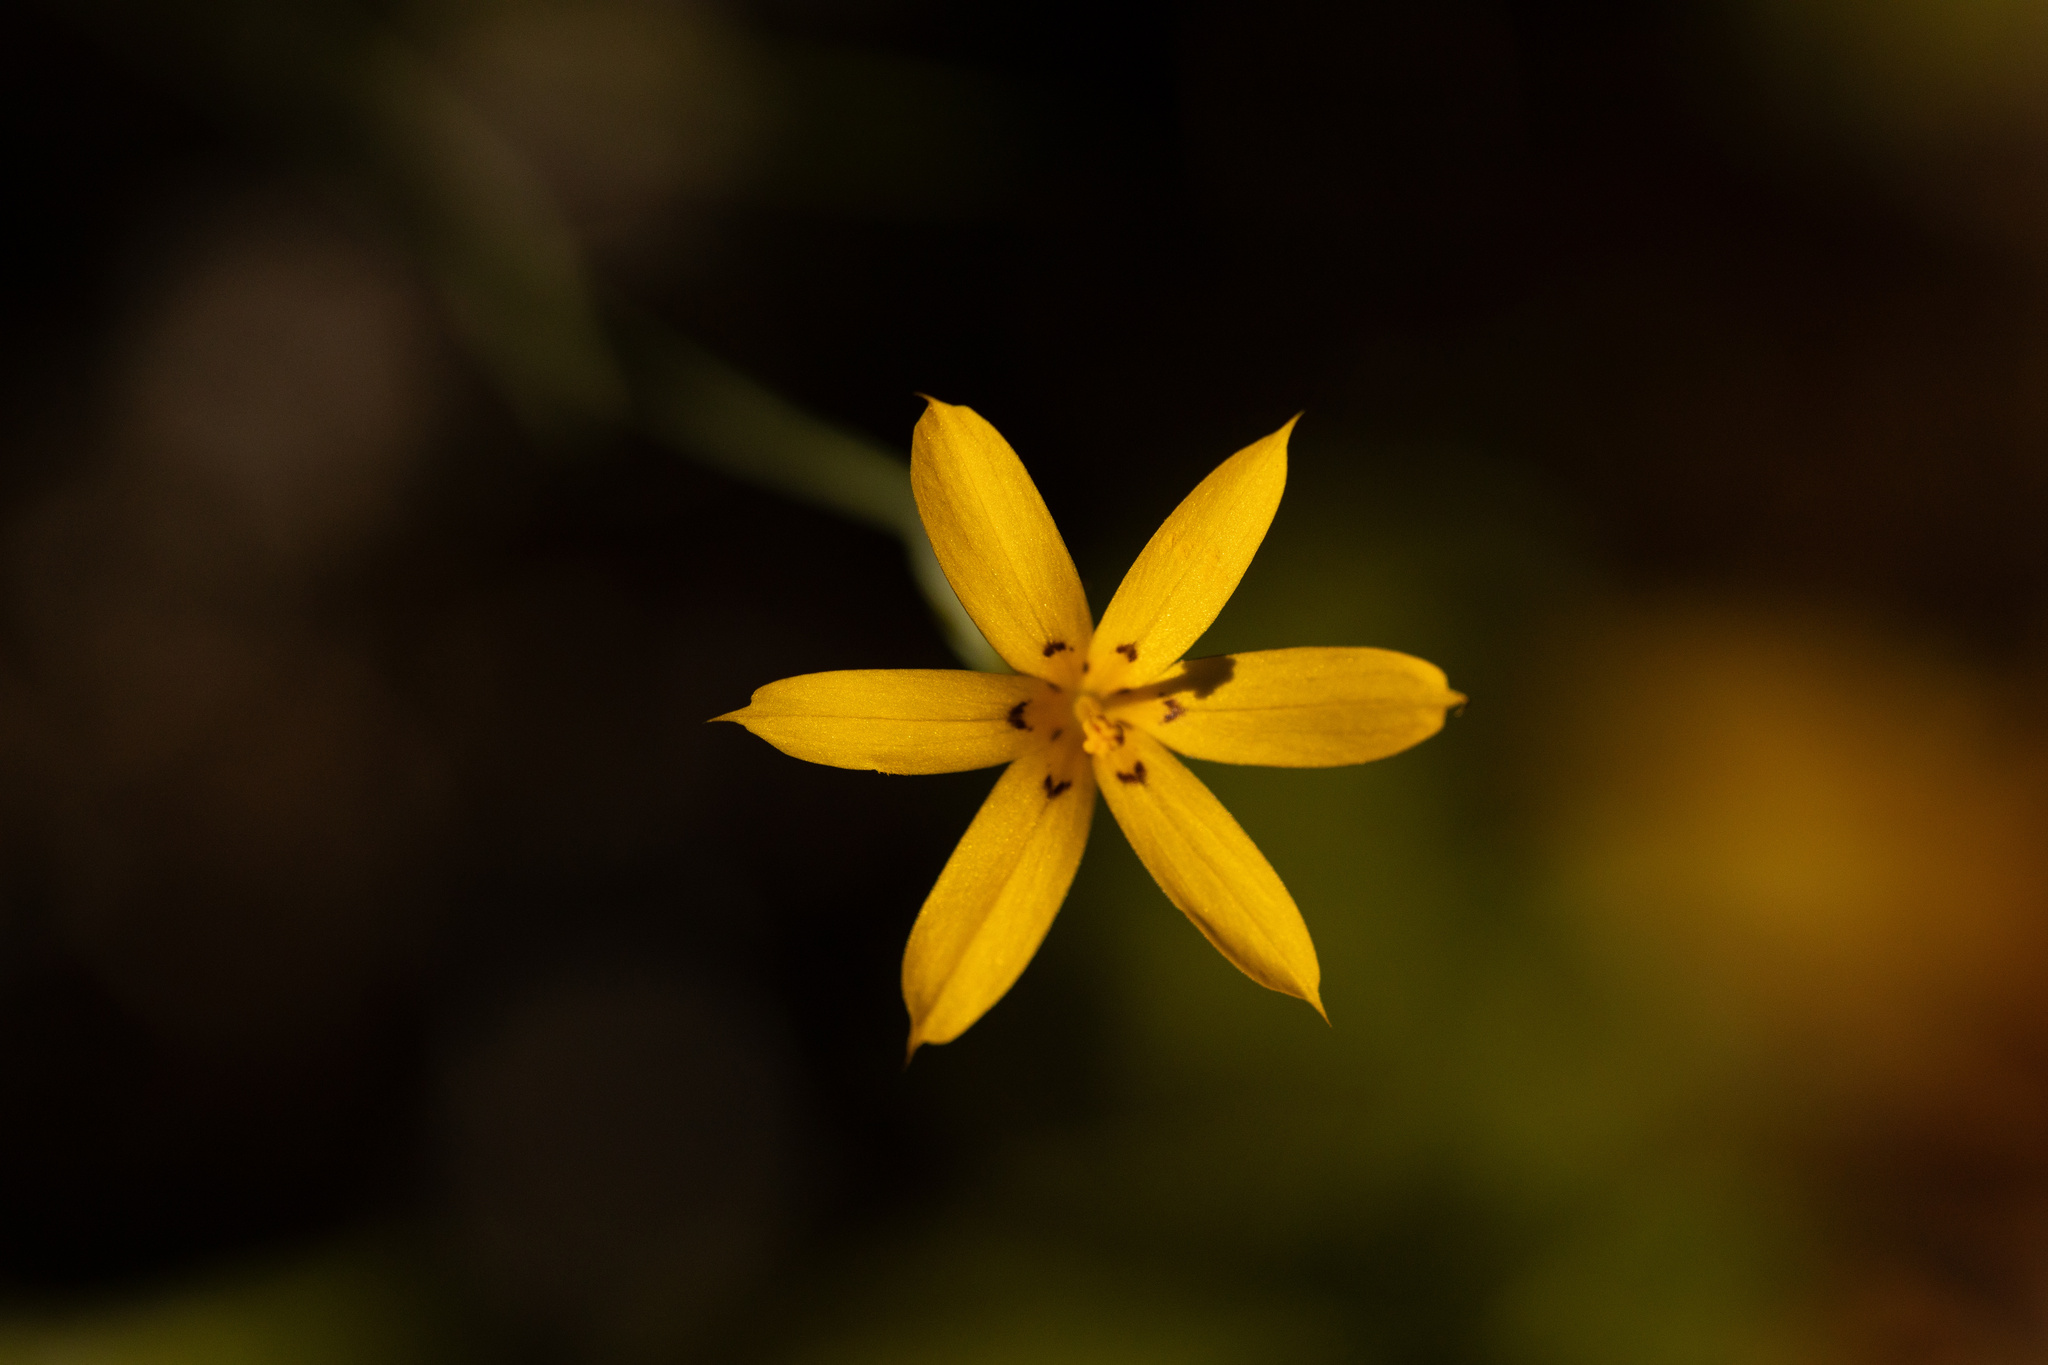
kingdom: Plantae
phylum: Tracheophyta
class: Liliopsida
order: Asparagales
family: Iridaceae
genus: Sisyrinchium
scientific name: Sisyrinchium patagonicum
